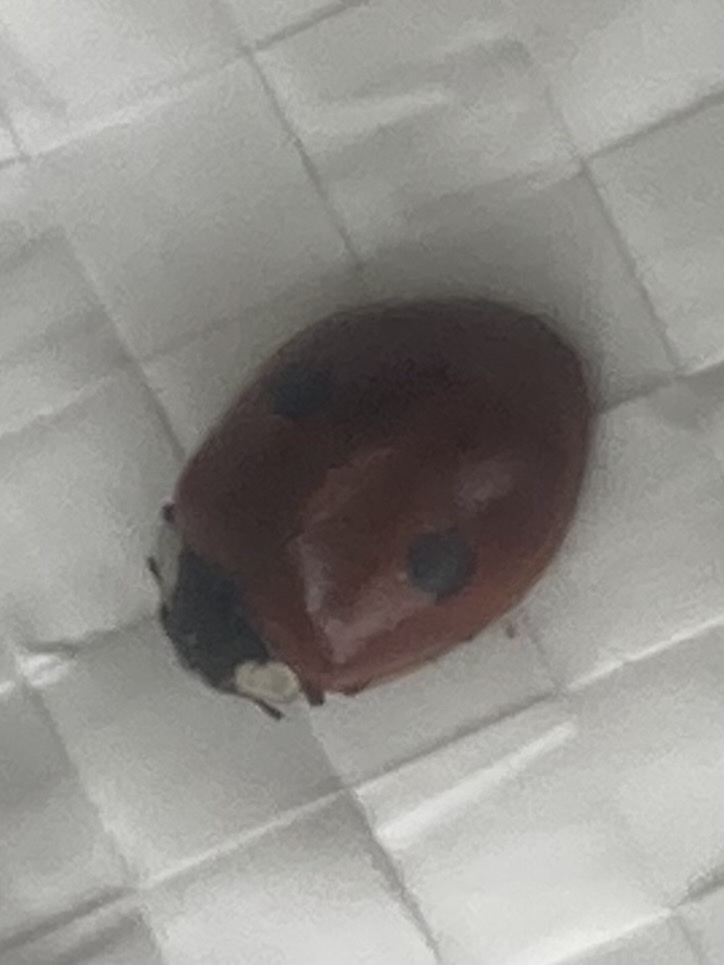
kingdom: Animalia
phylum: Arthropoda
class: Insecta
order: Coleoptera
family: Coccinellidae
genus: Adalia
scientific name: Adalia bipunctata
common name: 2-spot ladybird
